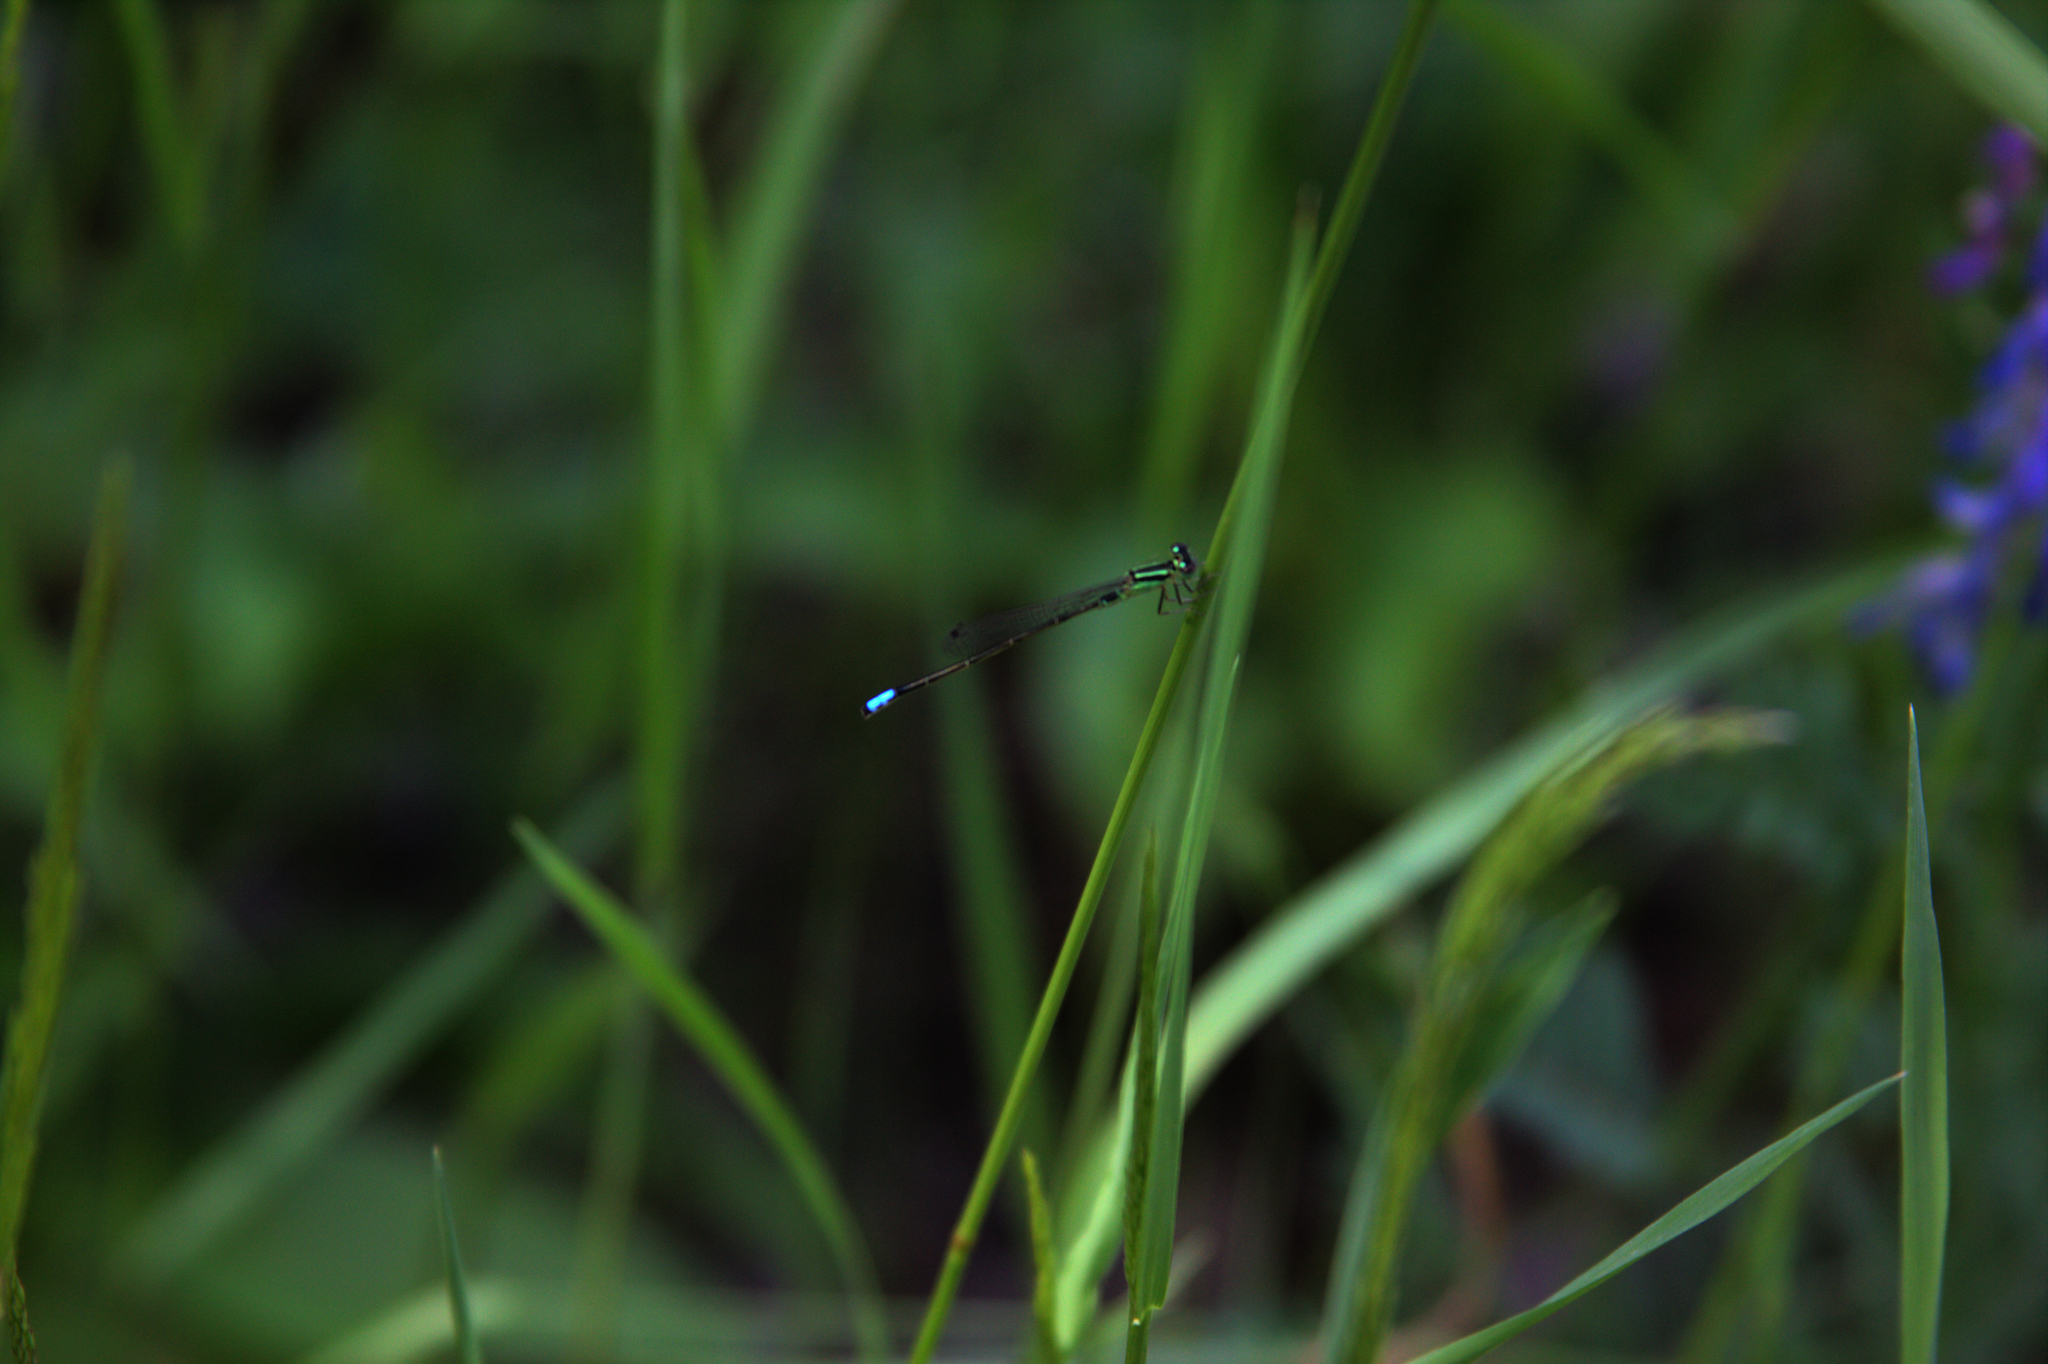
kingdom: Animalia
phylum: Arthropoda
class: Insecta
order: Odonata
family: Coenagrionidae
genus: Ischnura
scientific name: Ischnura verticalis
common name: Eastern forktail
